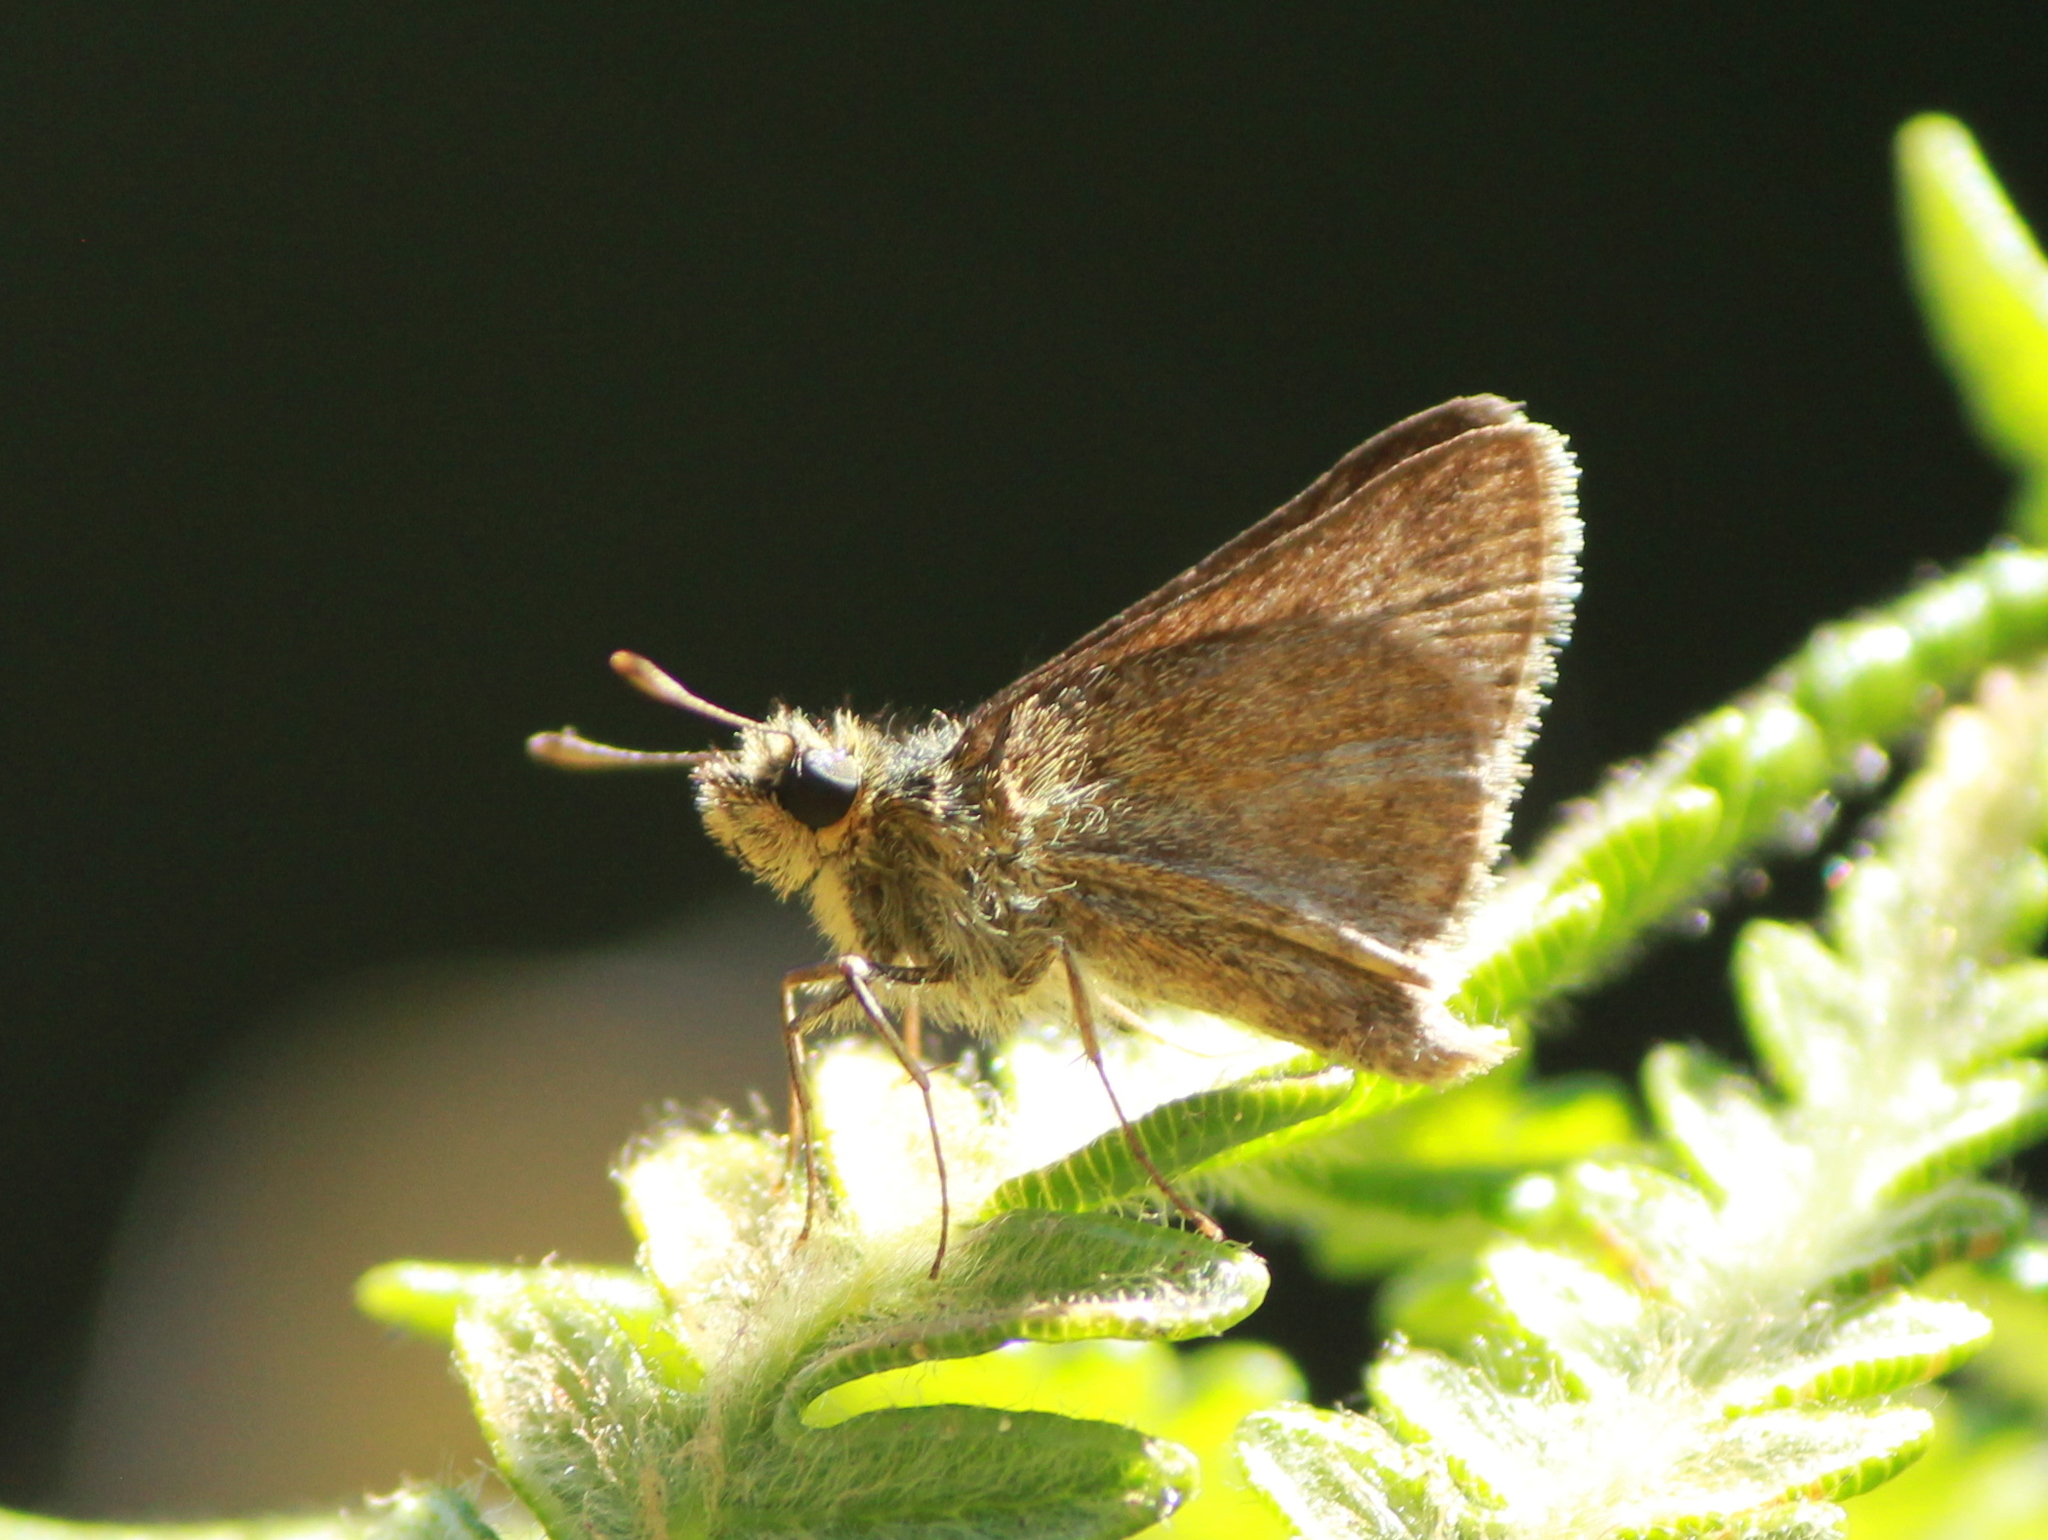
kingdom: Animalia
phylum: Arthropoda
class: Insecta
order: Lepidoptera
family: Hesperiidae
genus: Aeromachus
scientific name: Aeromachus pygmaeus
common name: Pygmy scrub hopper
